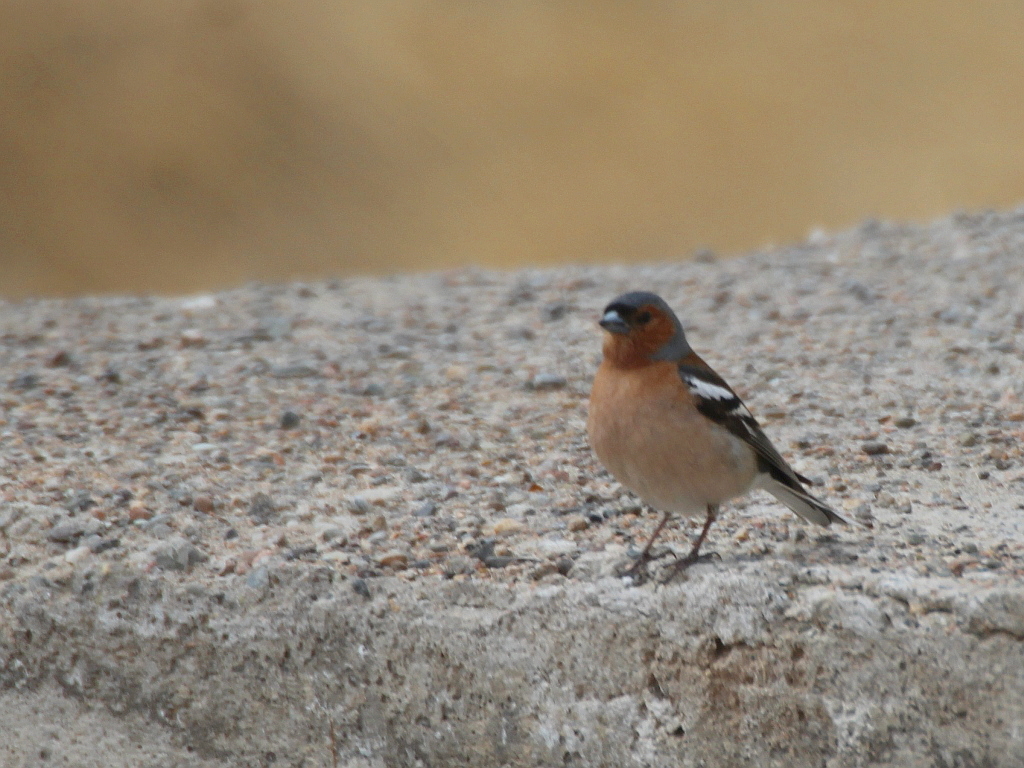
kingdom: Animalia
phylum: Chordata
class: Aves
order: Passeriformes
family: Fringillidae
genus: Fringilla
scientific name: Fringilla coelebs
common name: Common chaffinch
